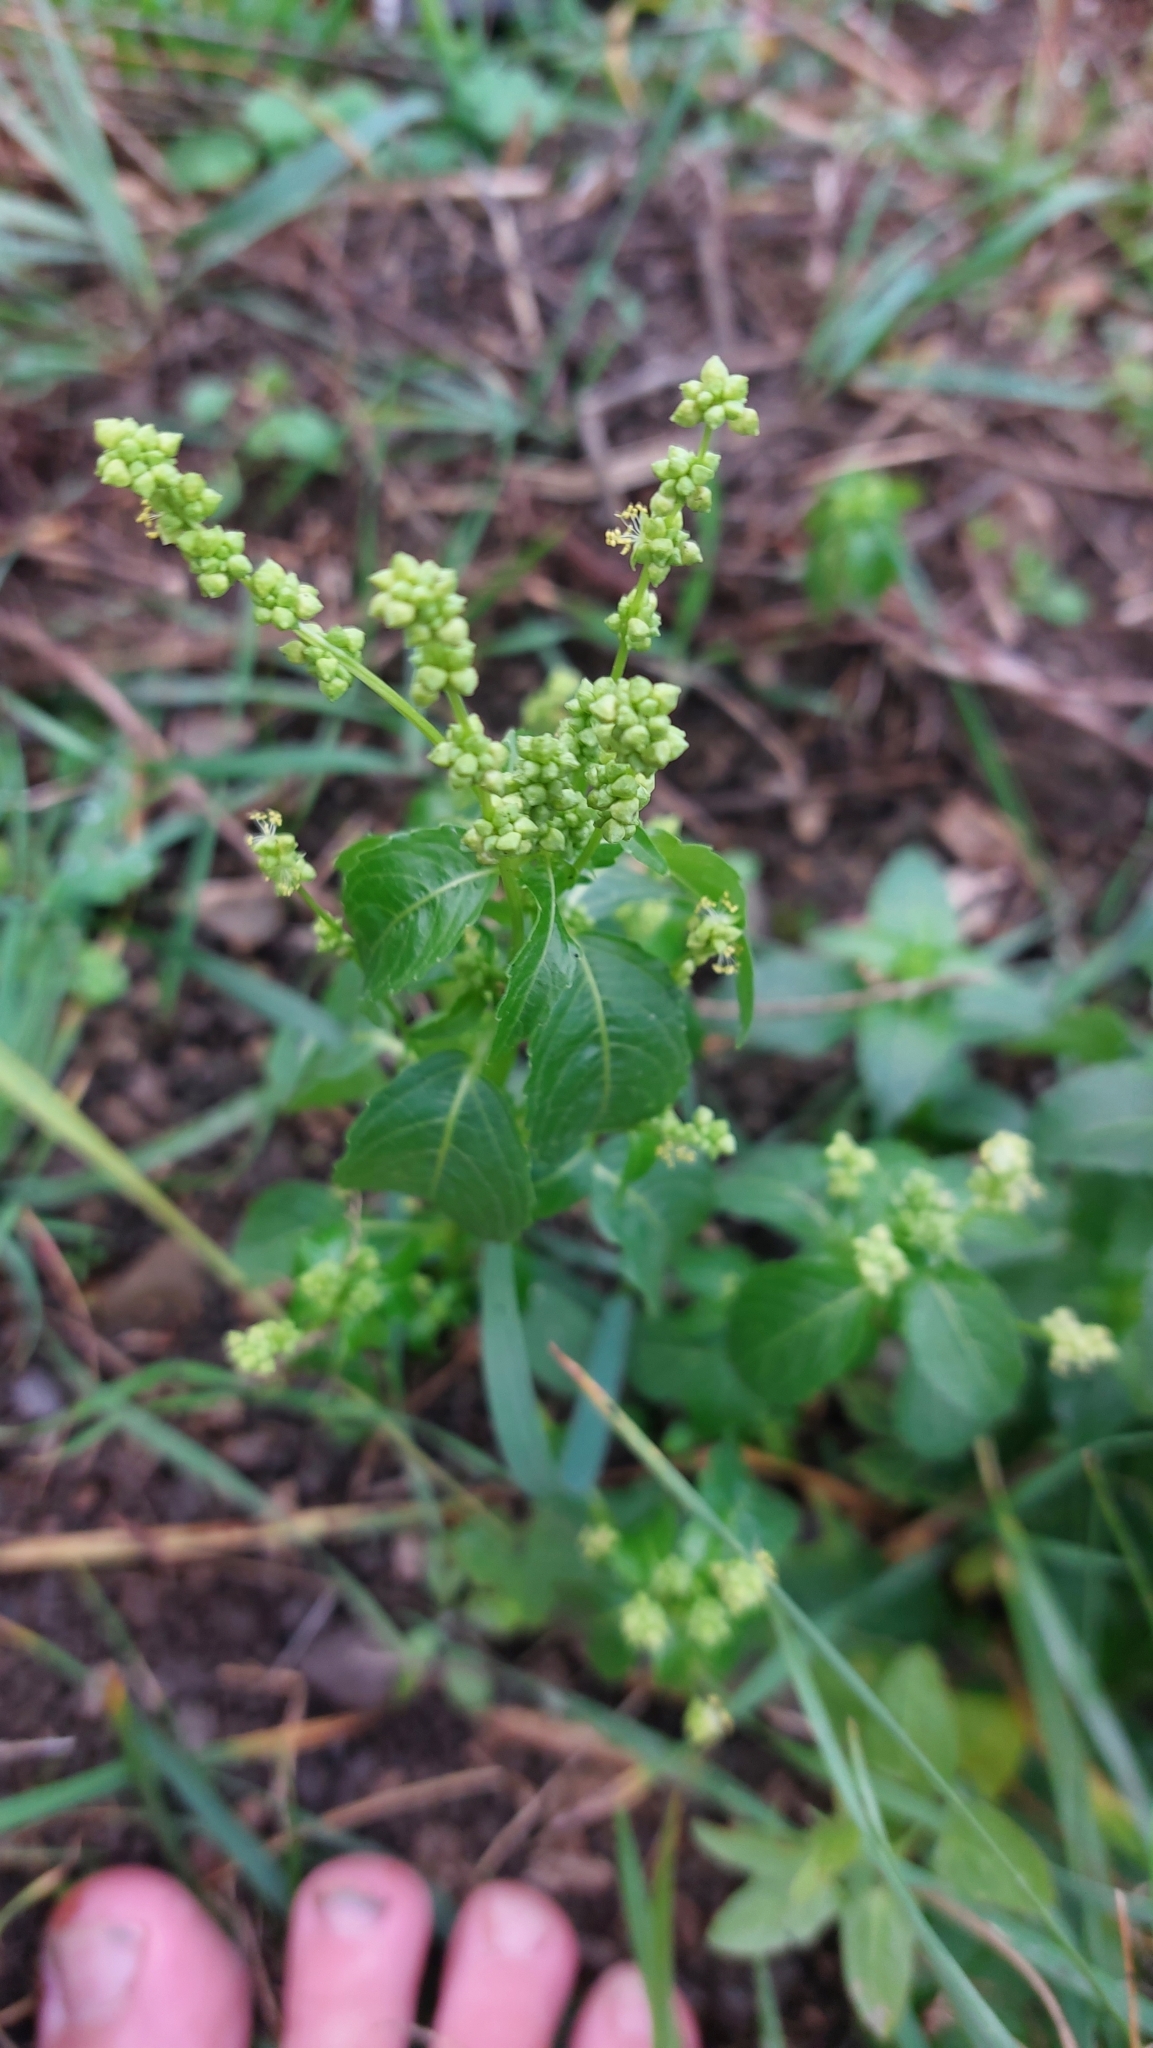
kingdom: Plantae
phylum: Tracheophyta
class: Magnoliopsida
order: Malpighiales
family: Euphorbiaceae
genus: Mercurialis
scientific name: Mercurialis annua
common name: Annual mercury
